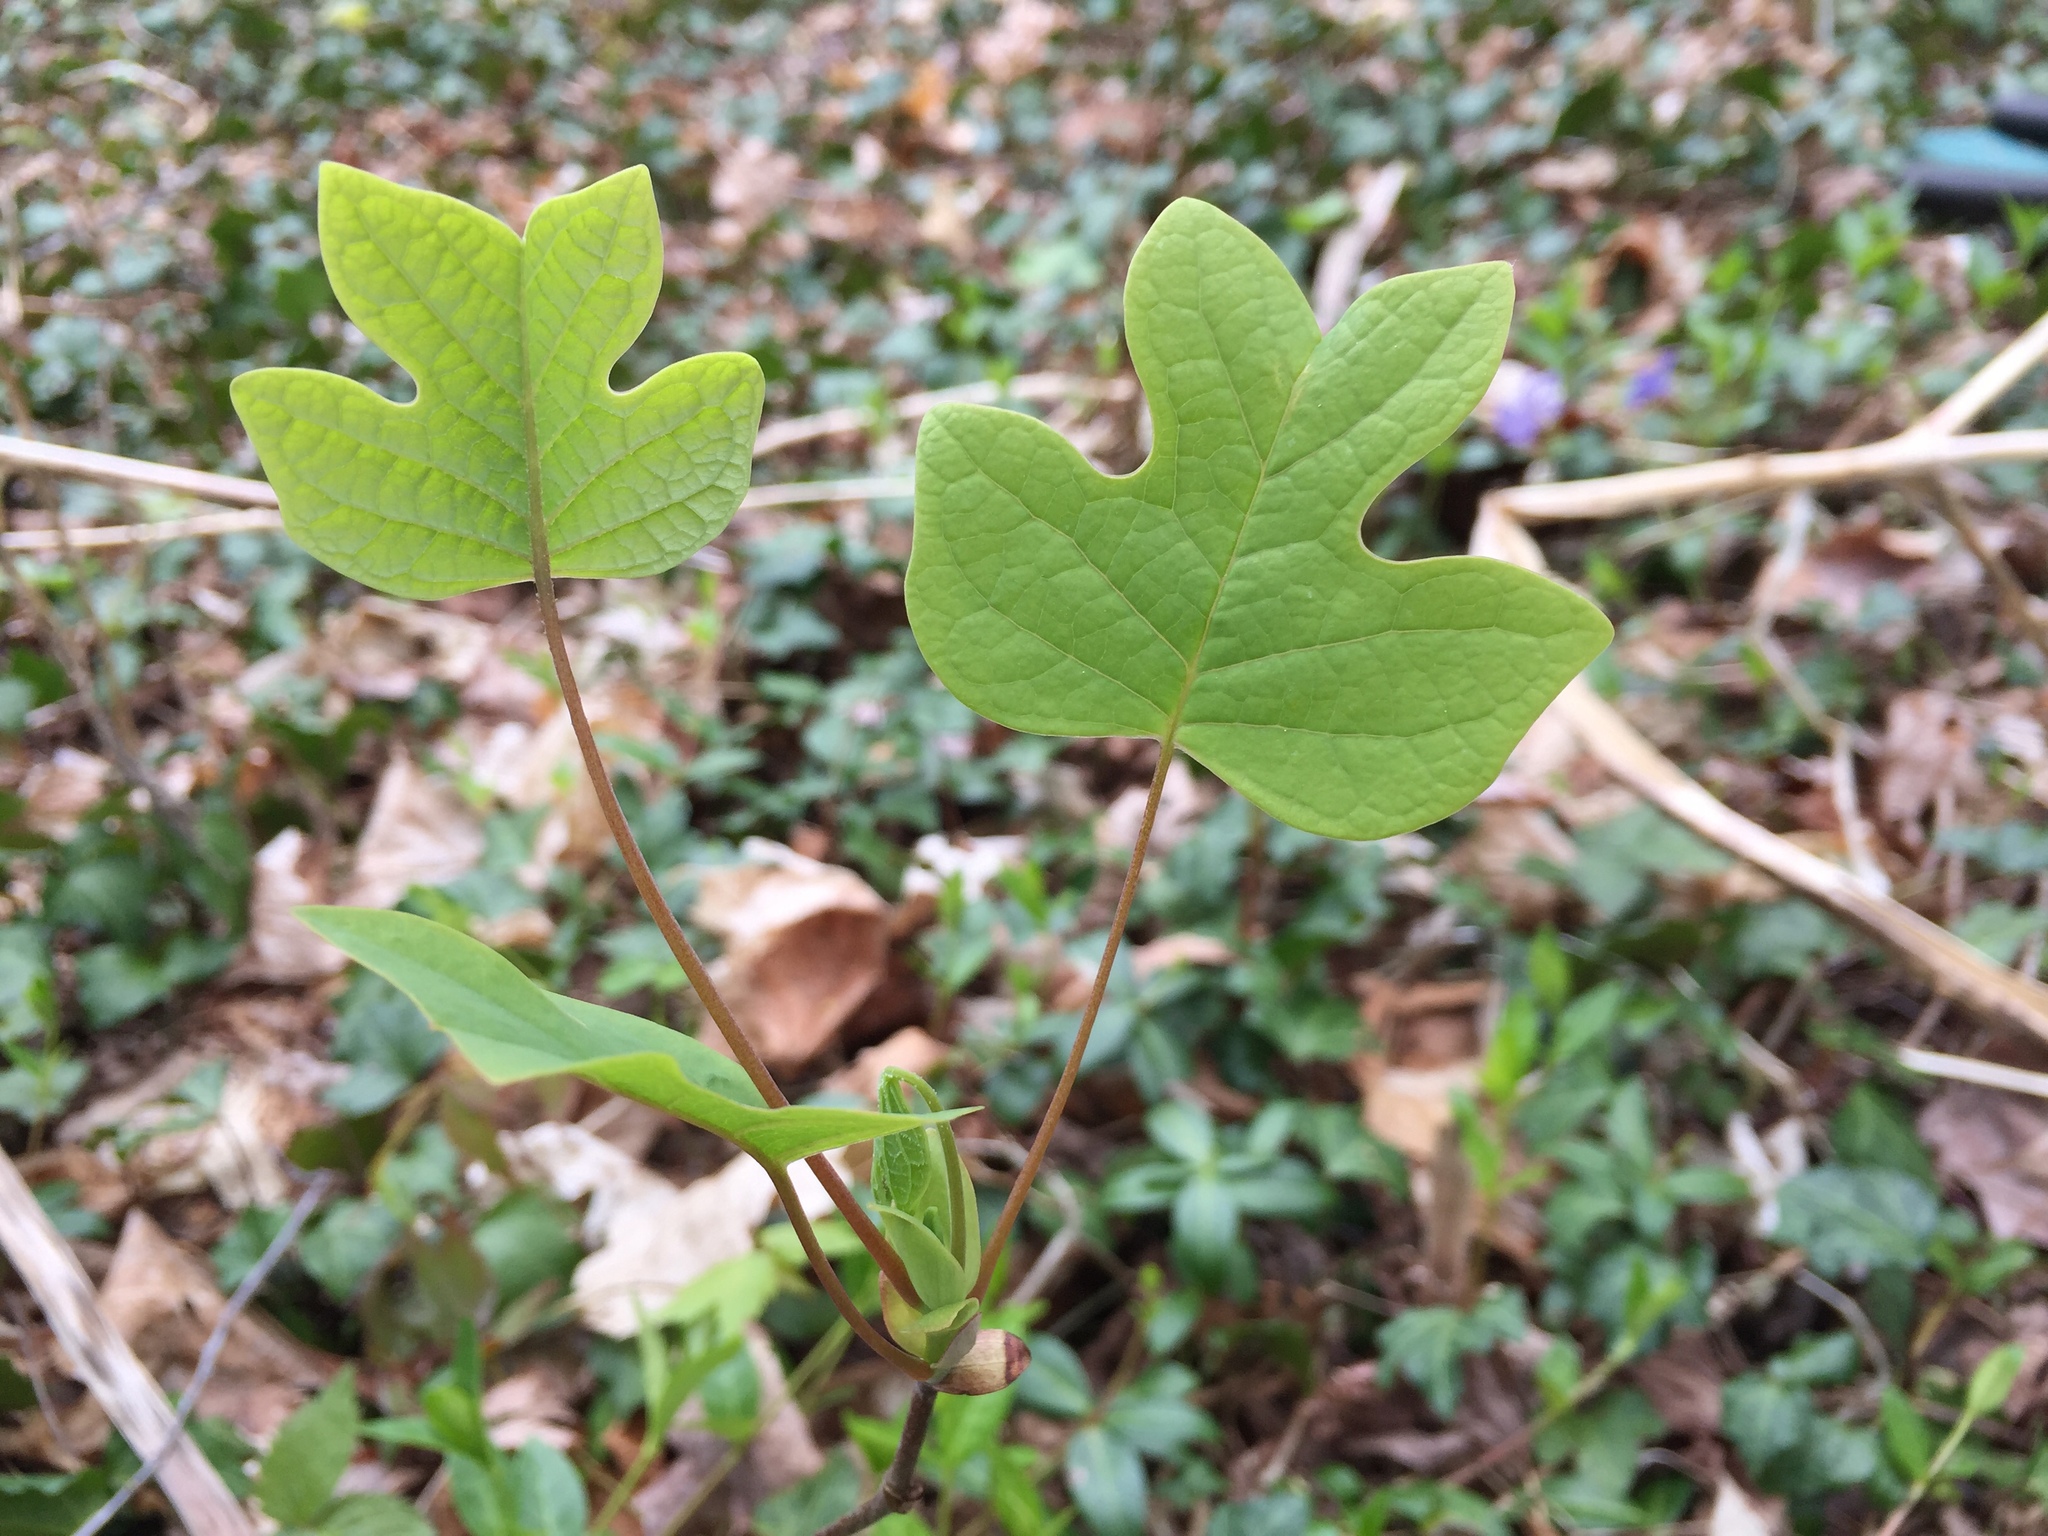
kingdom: Plantae
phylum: Tracheophyta
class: Magnoliopsida
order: Magnoliales
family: Magnoliaceae
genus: Liriodendron
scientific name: Liriodendron tulipifera
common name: Tulip tree
